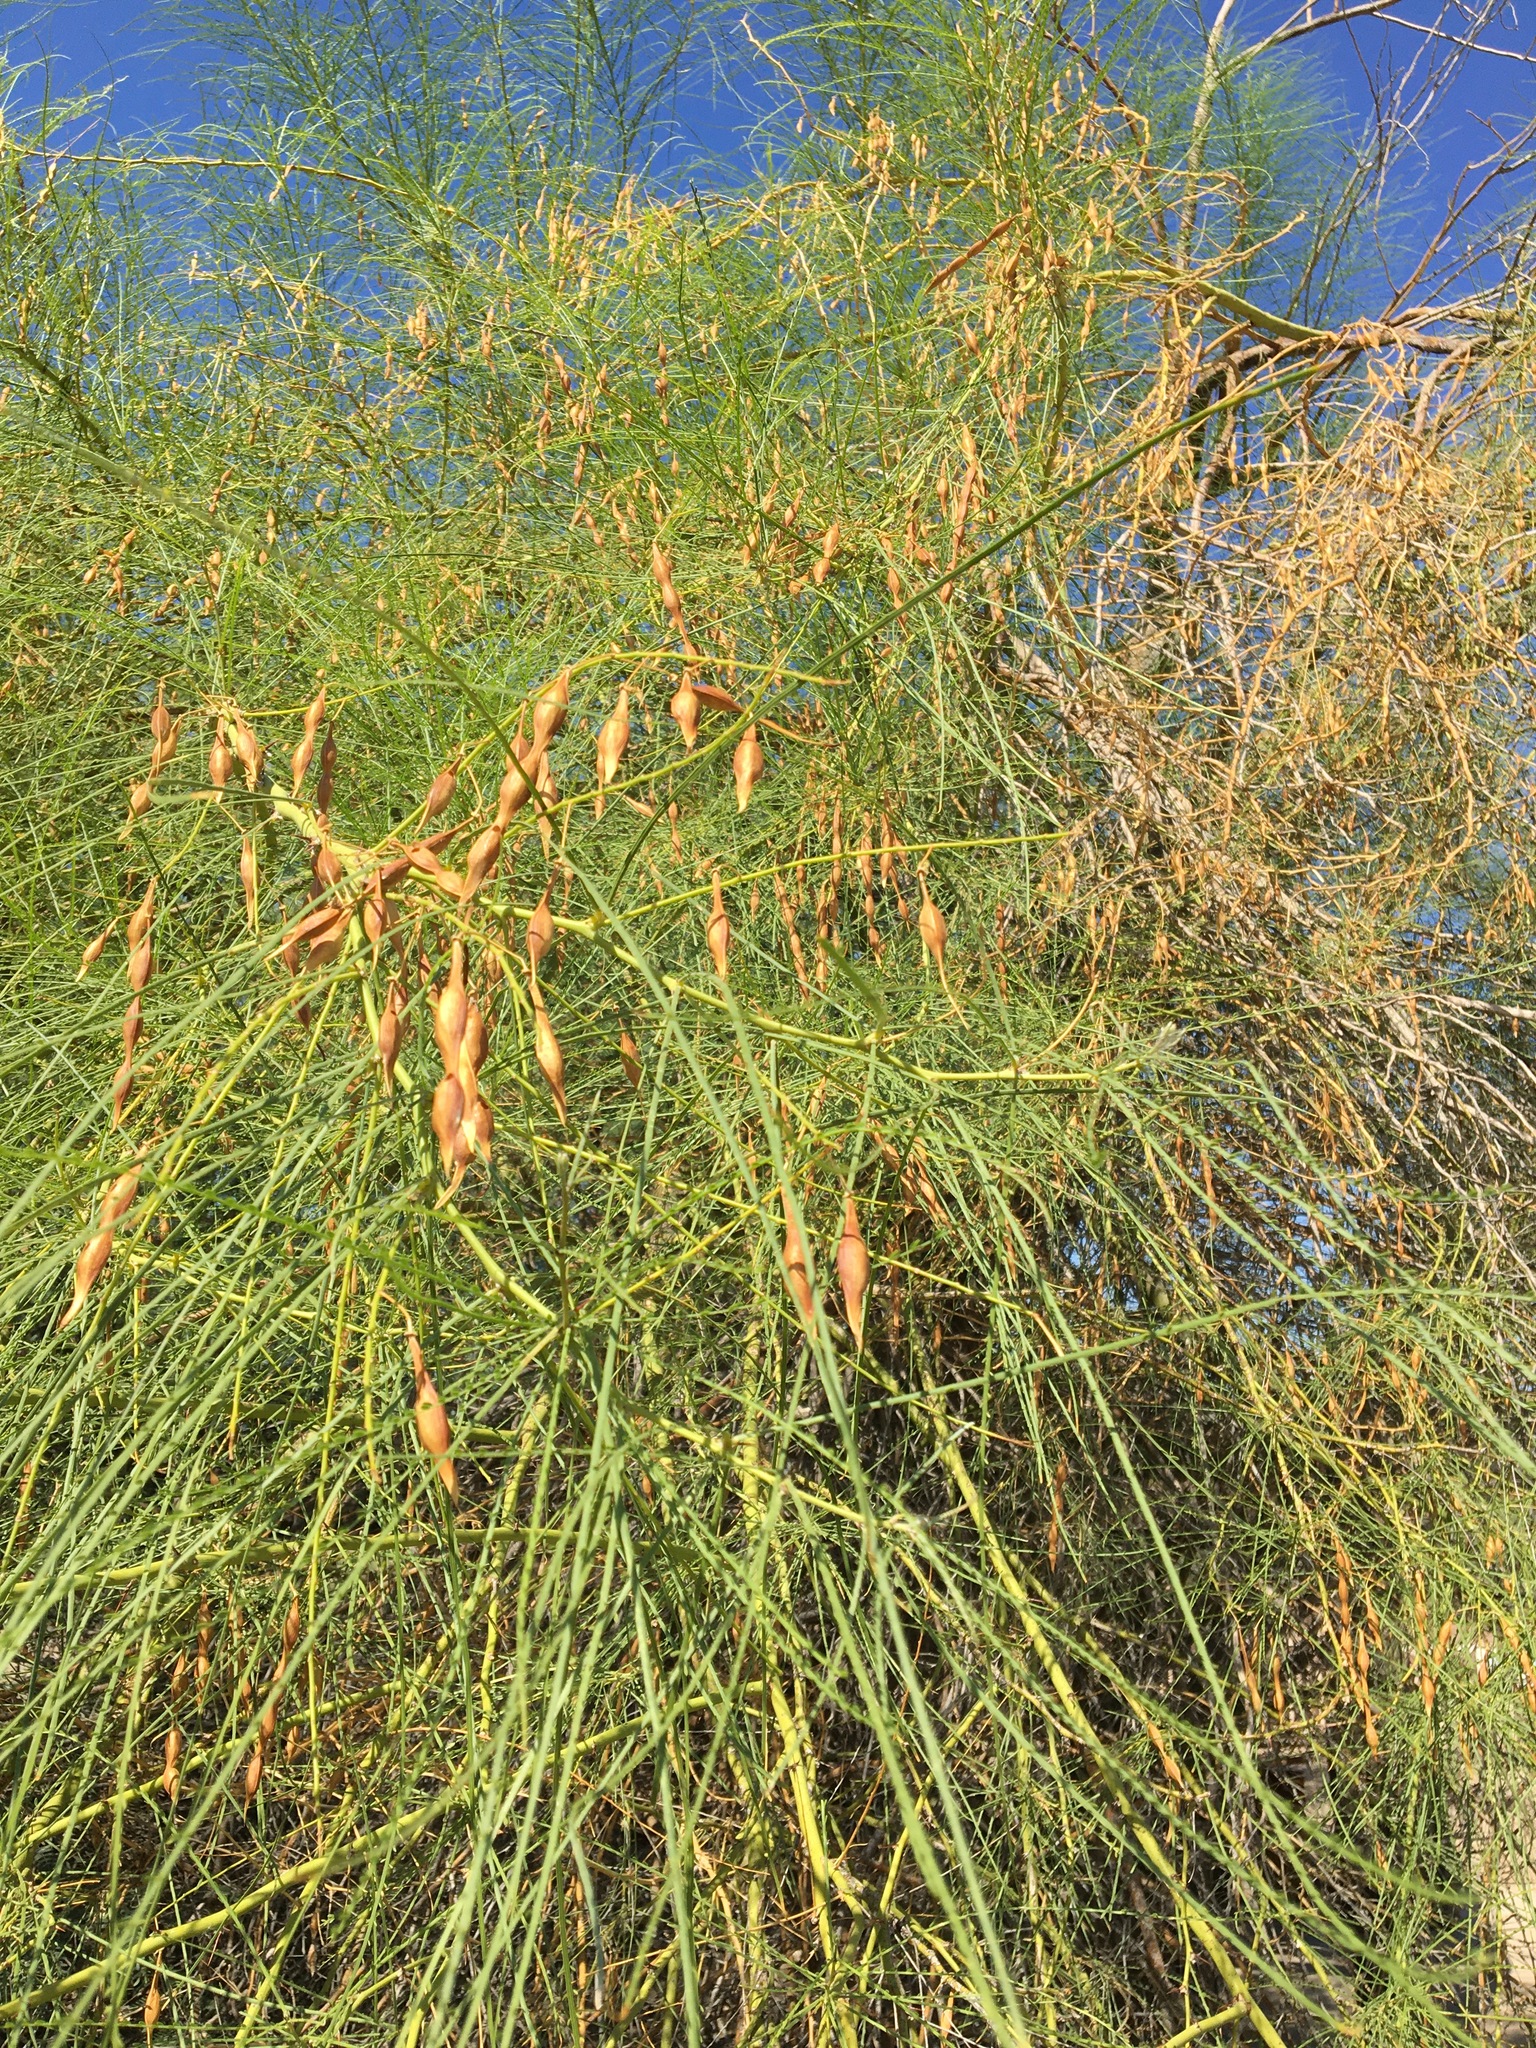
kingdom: Plantae
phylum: Tracheophyta
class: Magnoliopsida
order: Fabales
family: Fabaceae
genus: Parkinsonia
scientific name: Parkinsonia aculeata
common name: Jerusalem thorn
